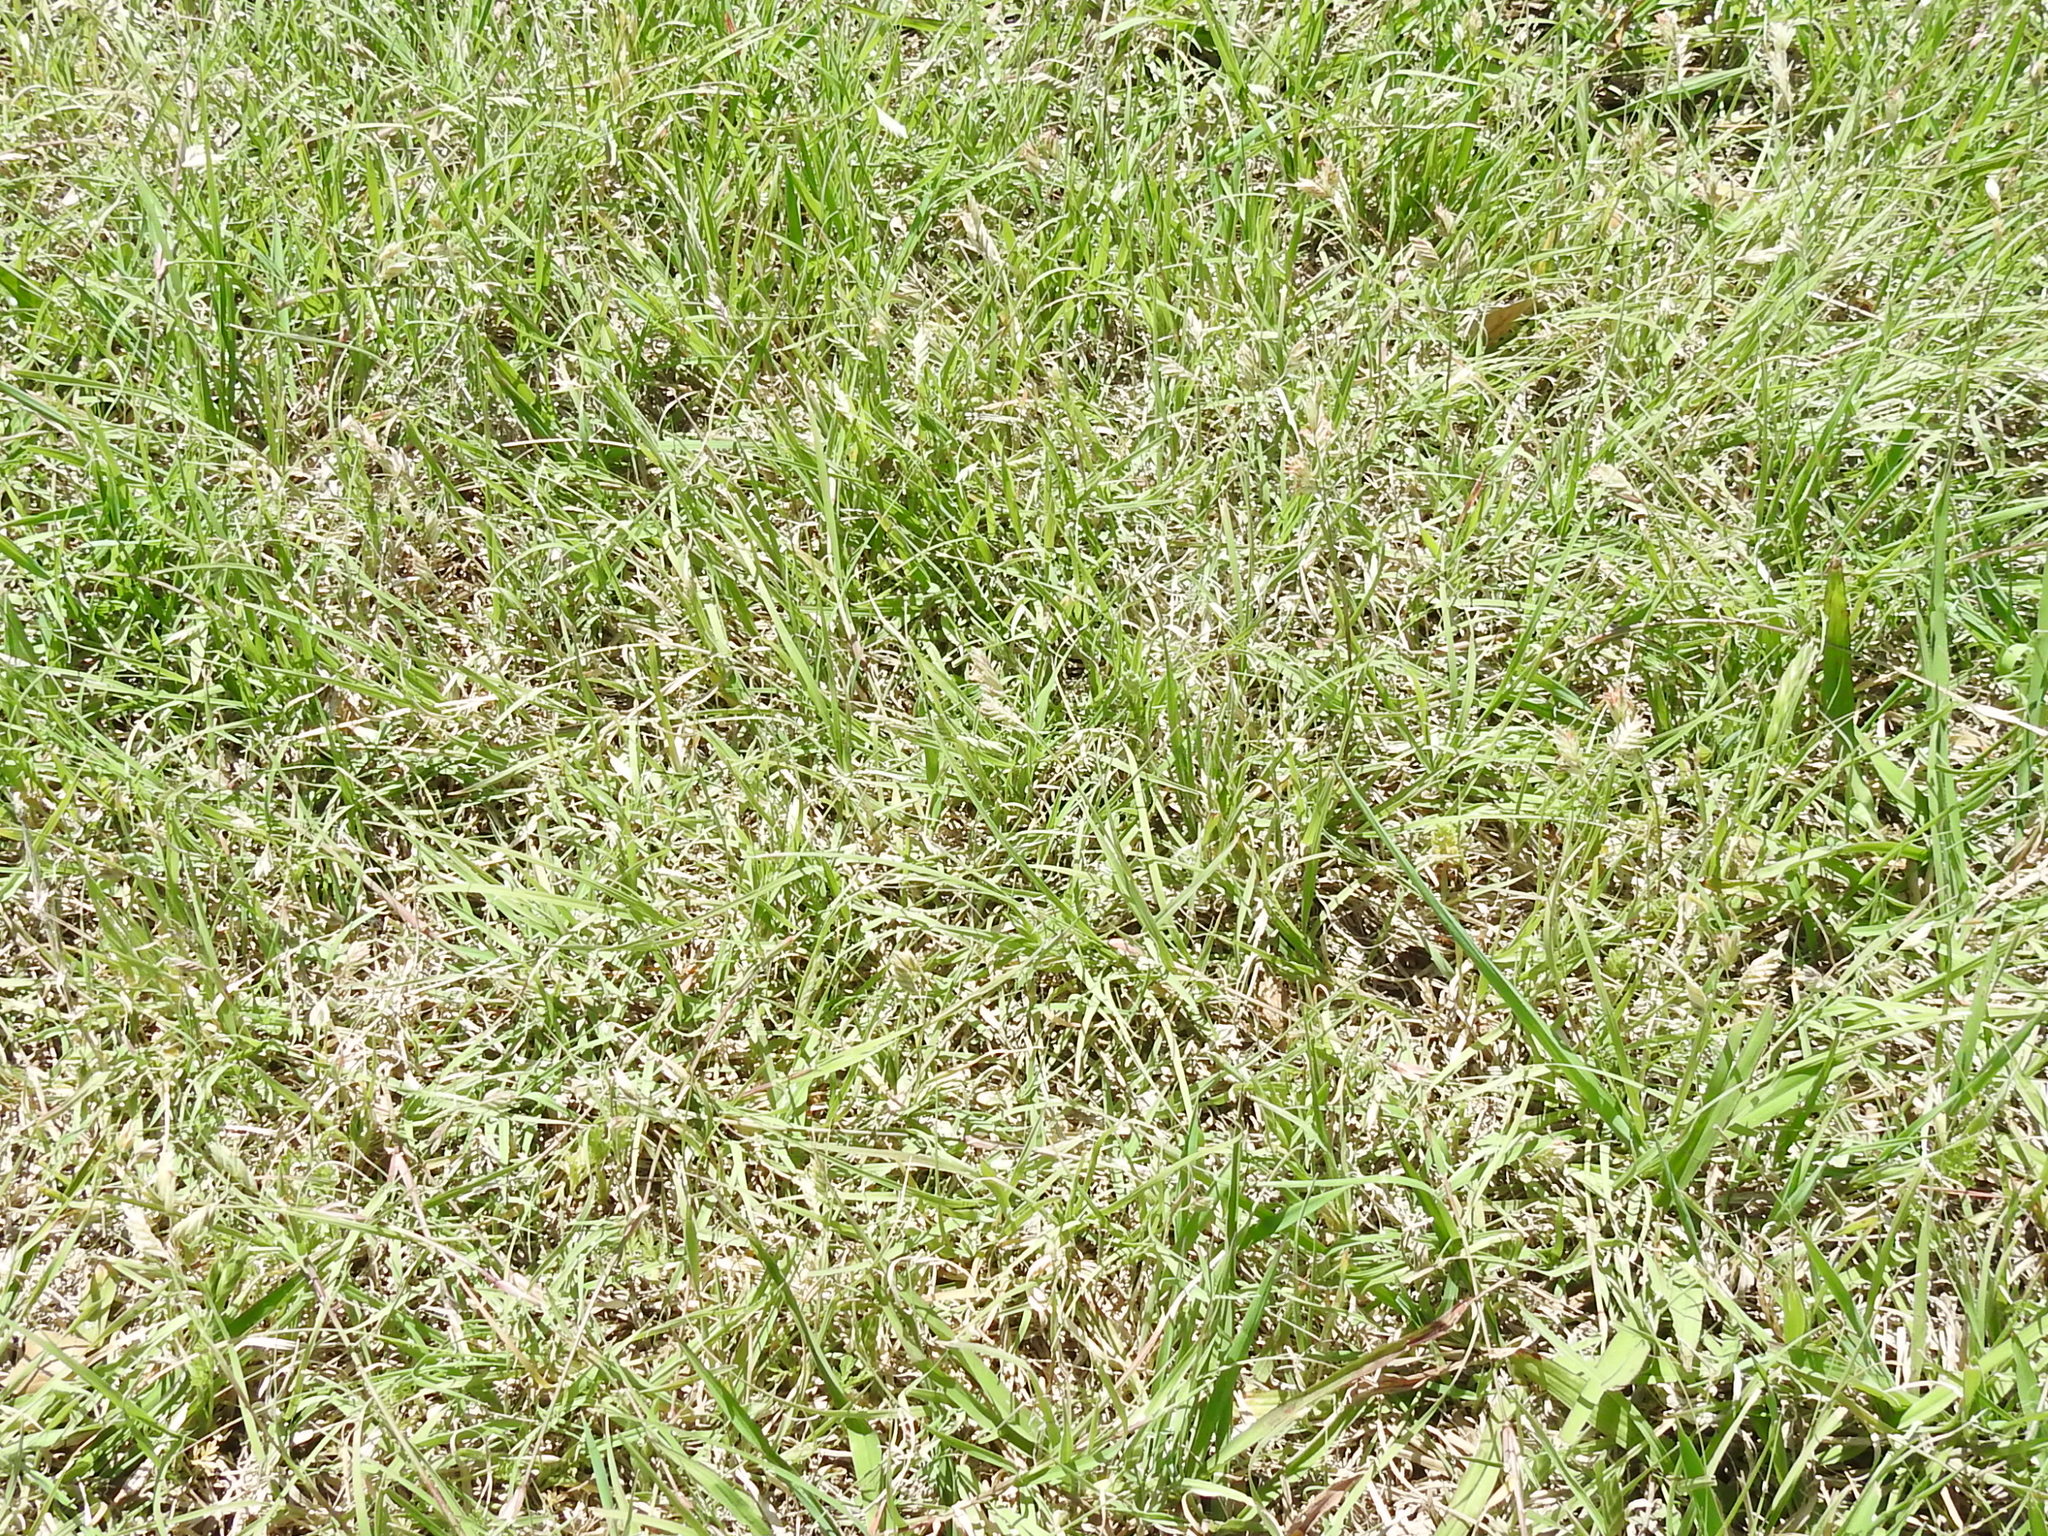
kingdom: Plantae
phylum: Tracheophyta
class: Liliopsida
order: Poales
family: Poaceae
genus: Bouteloua
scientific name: Bouteloua dactyloides
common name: Buffalo grass
